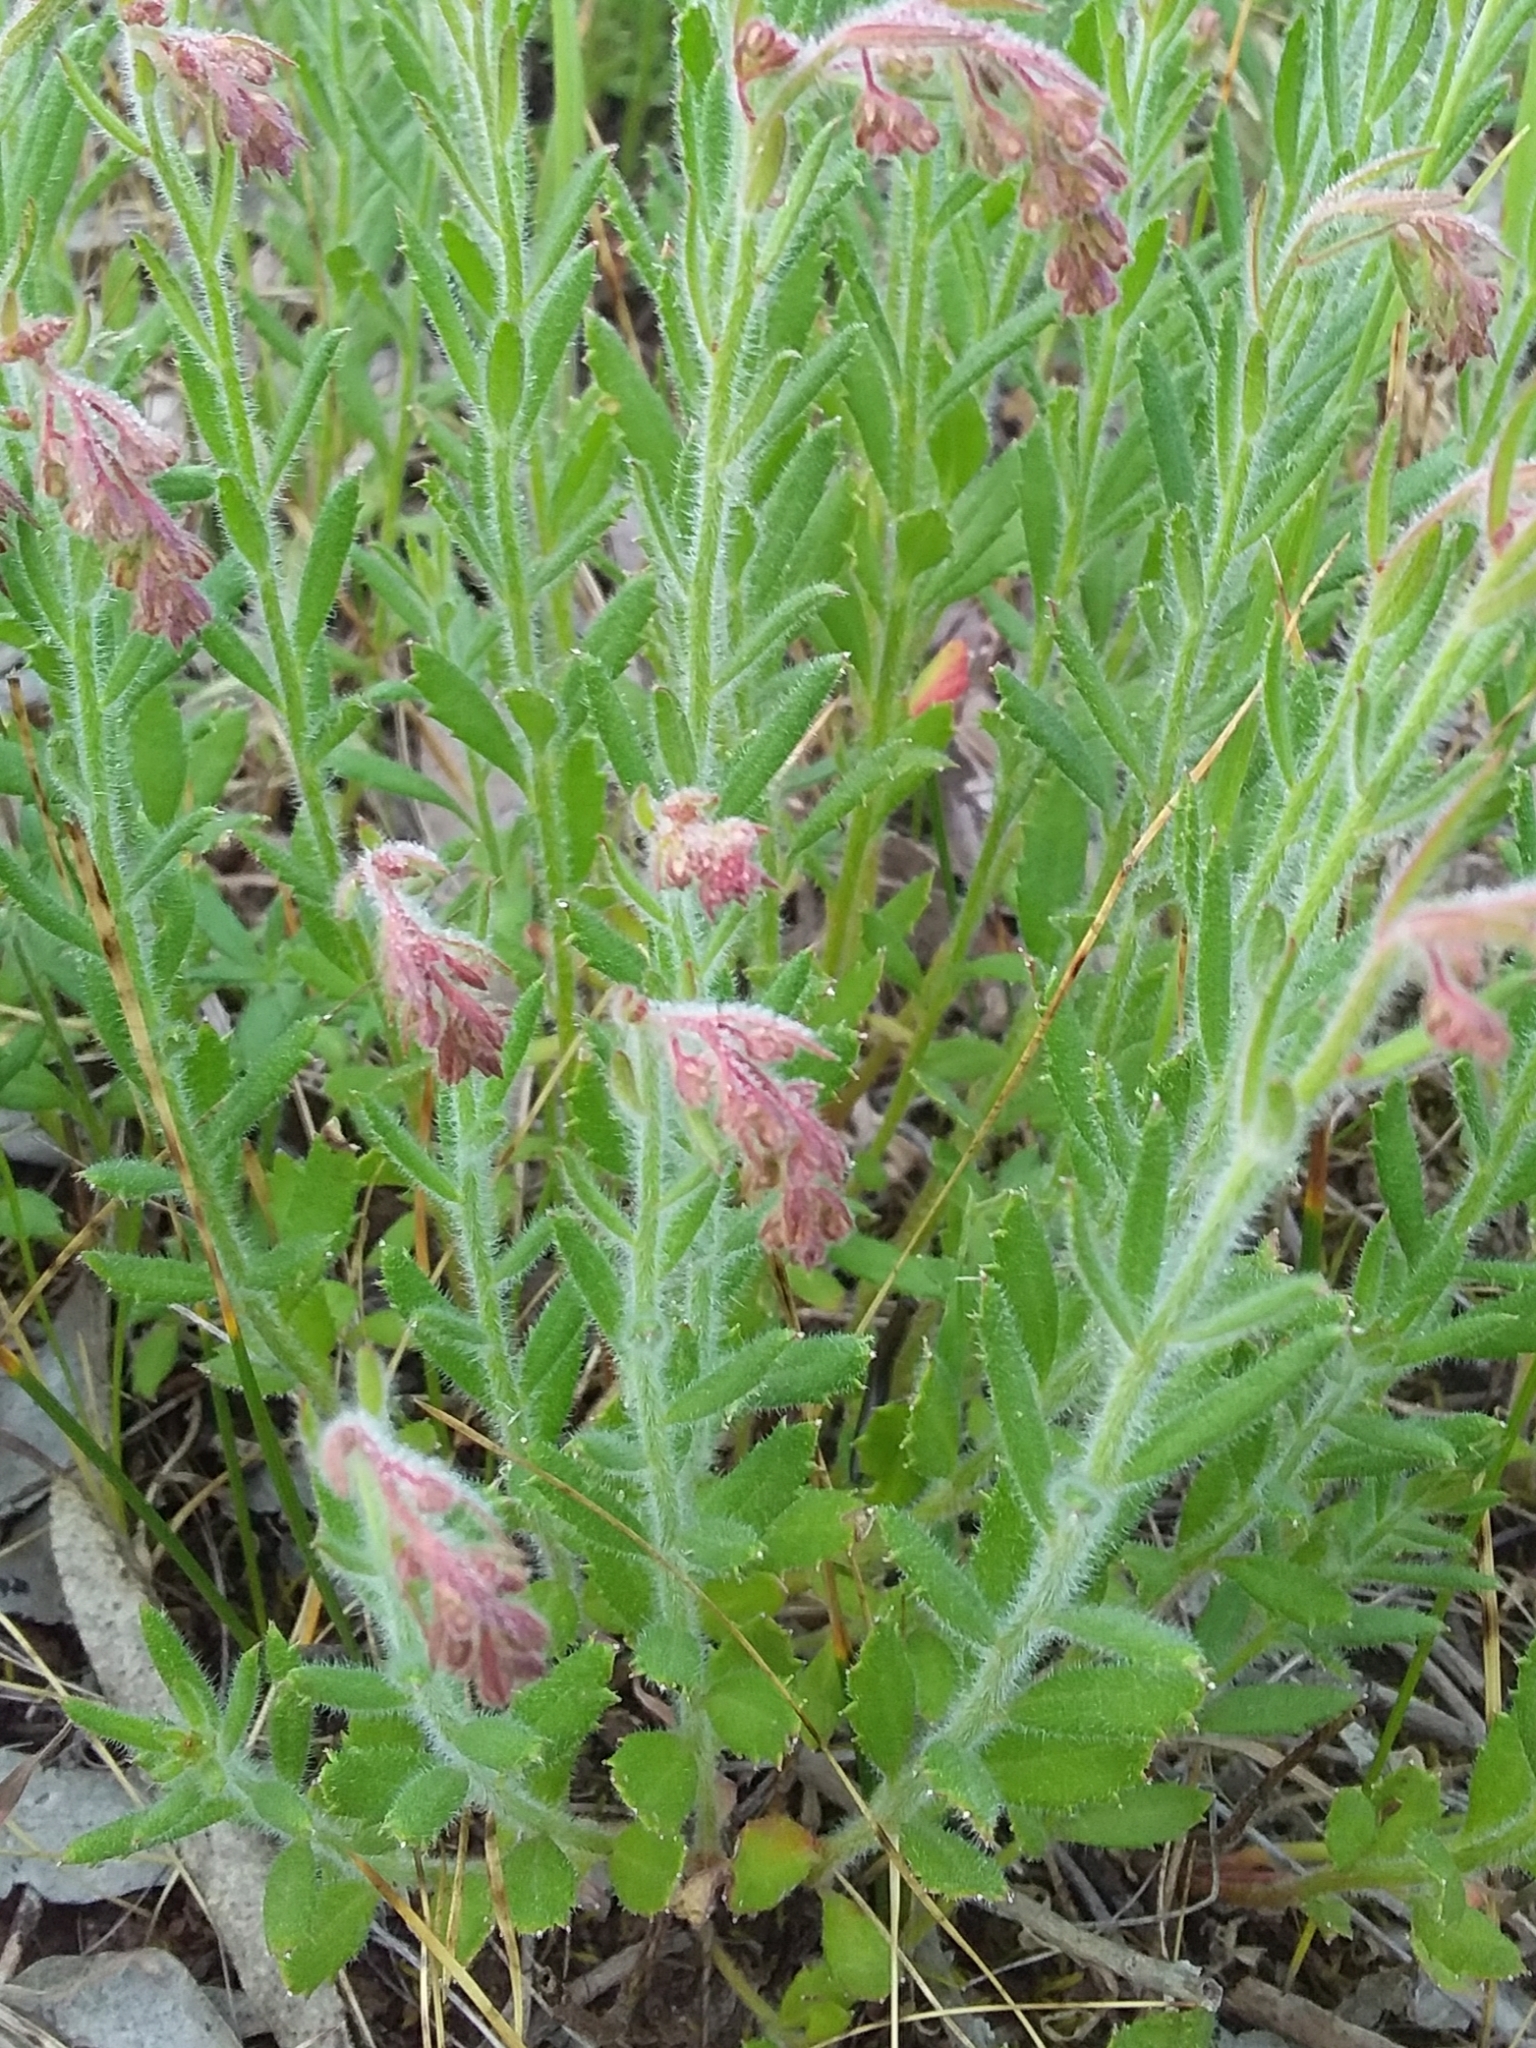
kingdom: Plantae
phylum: Tracheophyta
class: Magnoliopsida
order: Saxifragales
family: Haloragaceae
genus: Gonocarpus
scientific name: Gonocarpus elatus
